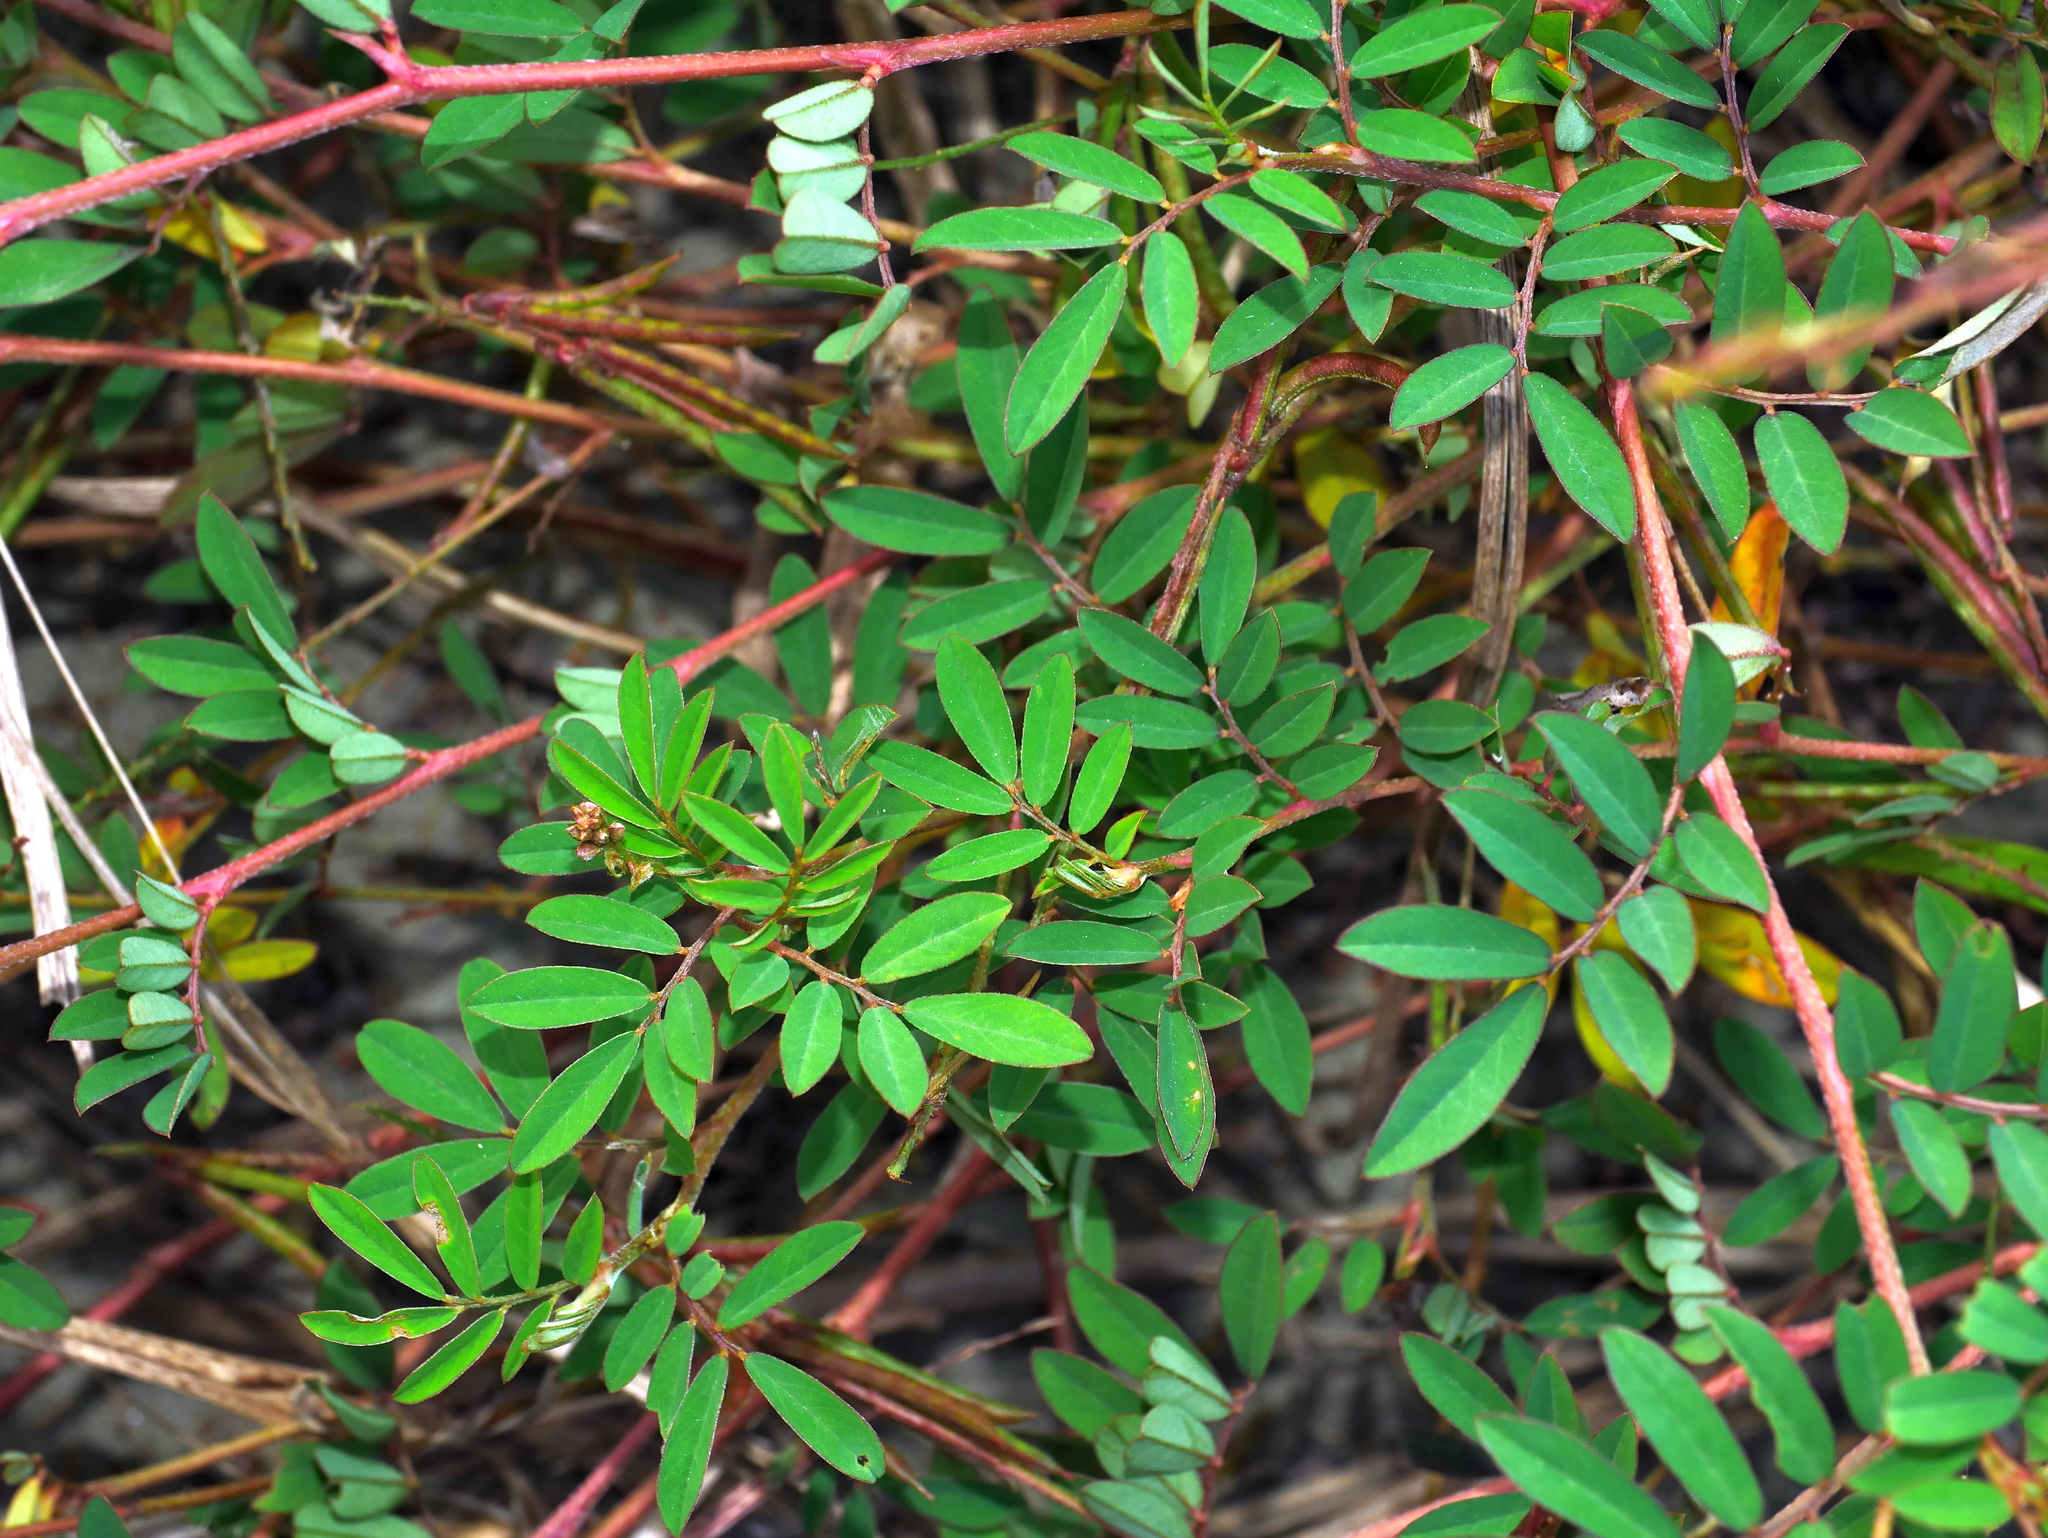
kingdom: Plantae
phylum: Tracheophyta
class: Magnoliopsida
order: Fabales
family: Fabaceae
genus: Indigofera
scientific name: Indigofera hendecaphylla
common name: Trailing indigo
